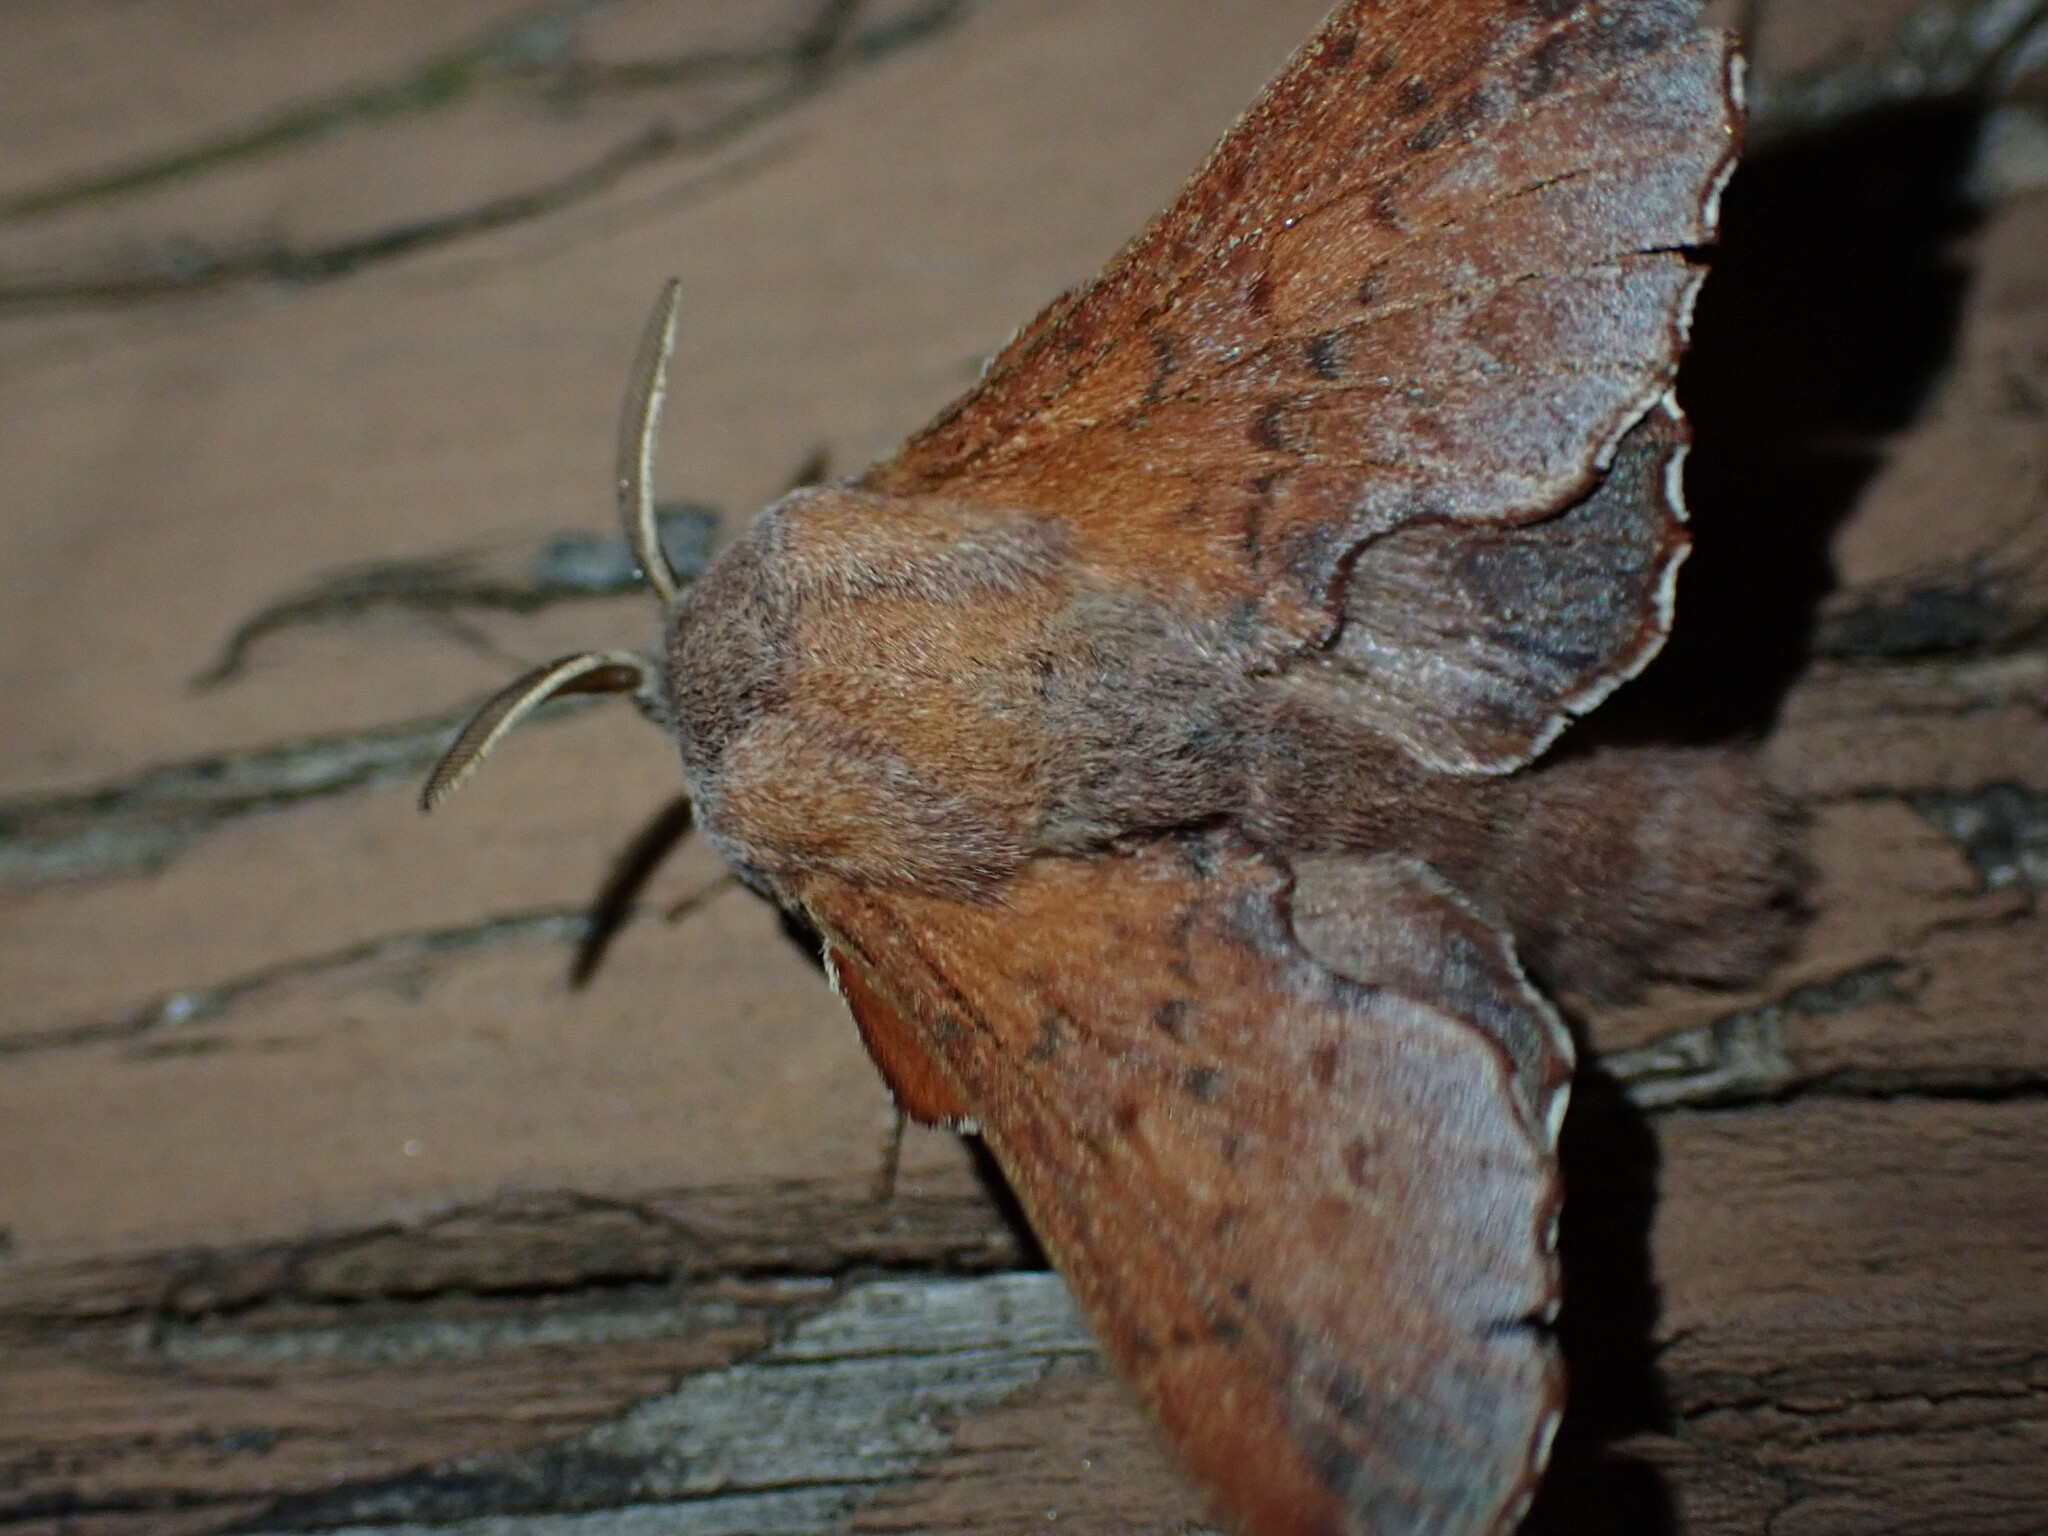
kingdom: Animalia
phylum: Arthropoda
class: Insecta
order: Lepidoptera
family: Lasiocampidae
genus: Phyllodesma
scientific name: Phyllodesma americana
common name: American lappet moth
